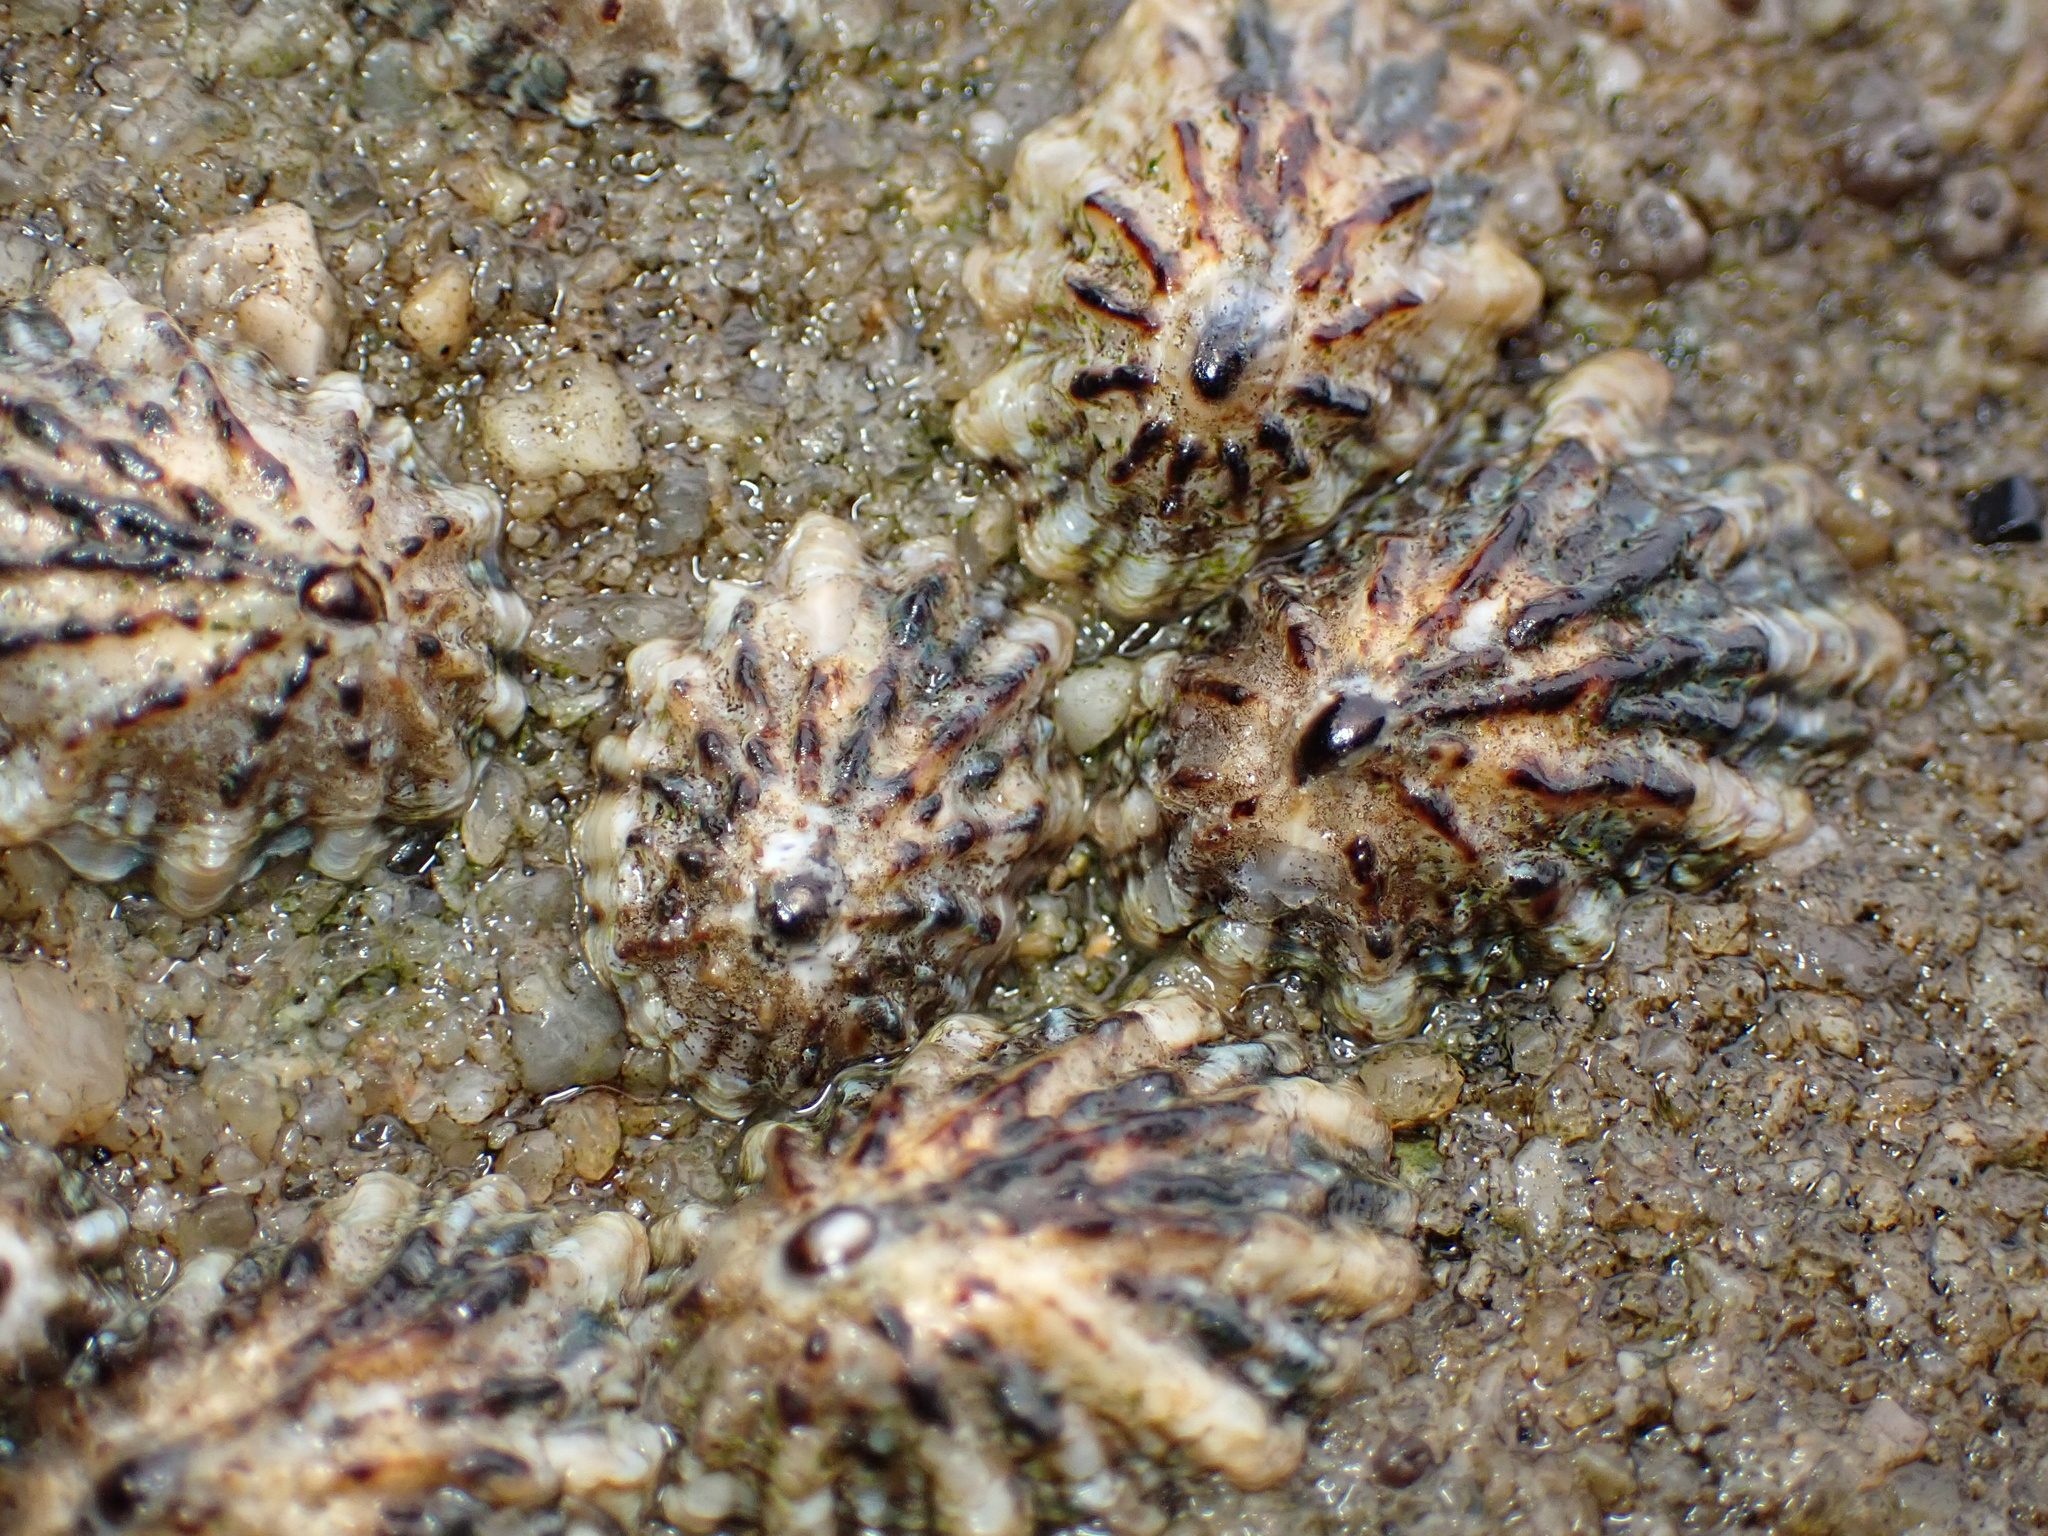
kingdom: Animalia
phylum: Mollusca
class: Gastropoda
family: Lottiidae
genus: Lottia
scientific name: Lottia scabra
